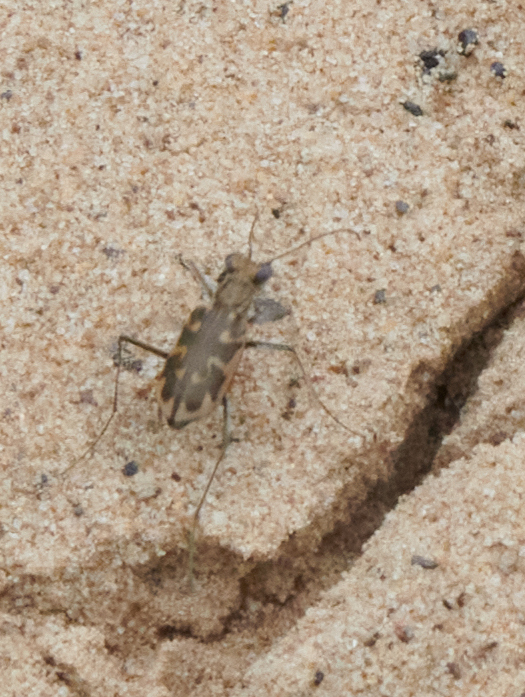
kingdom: Animalia
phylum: Arthropoda
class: Insecta
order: Coleoptera
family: Carabidae
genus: Ellipsoptera
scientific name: Ellipsoptera cuprascens
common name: Coppery tiger beetle
